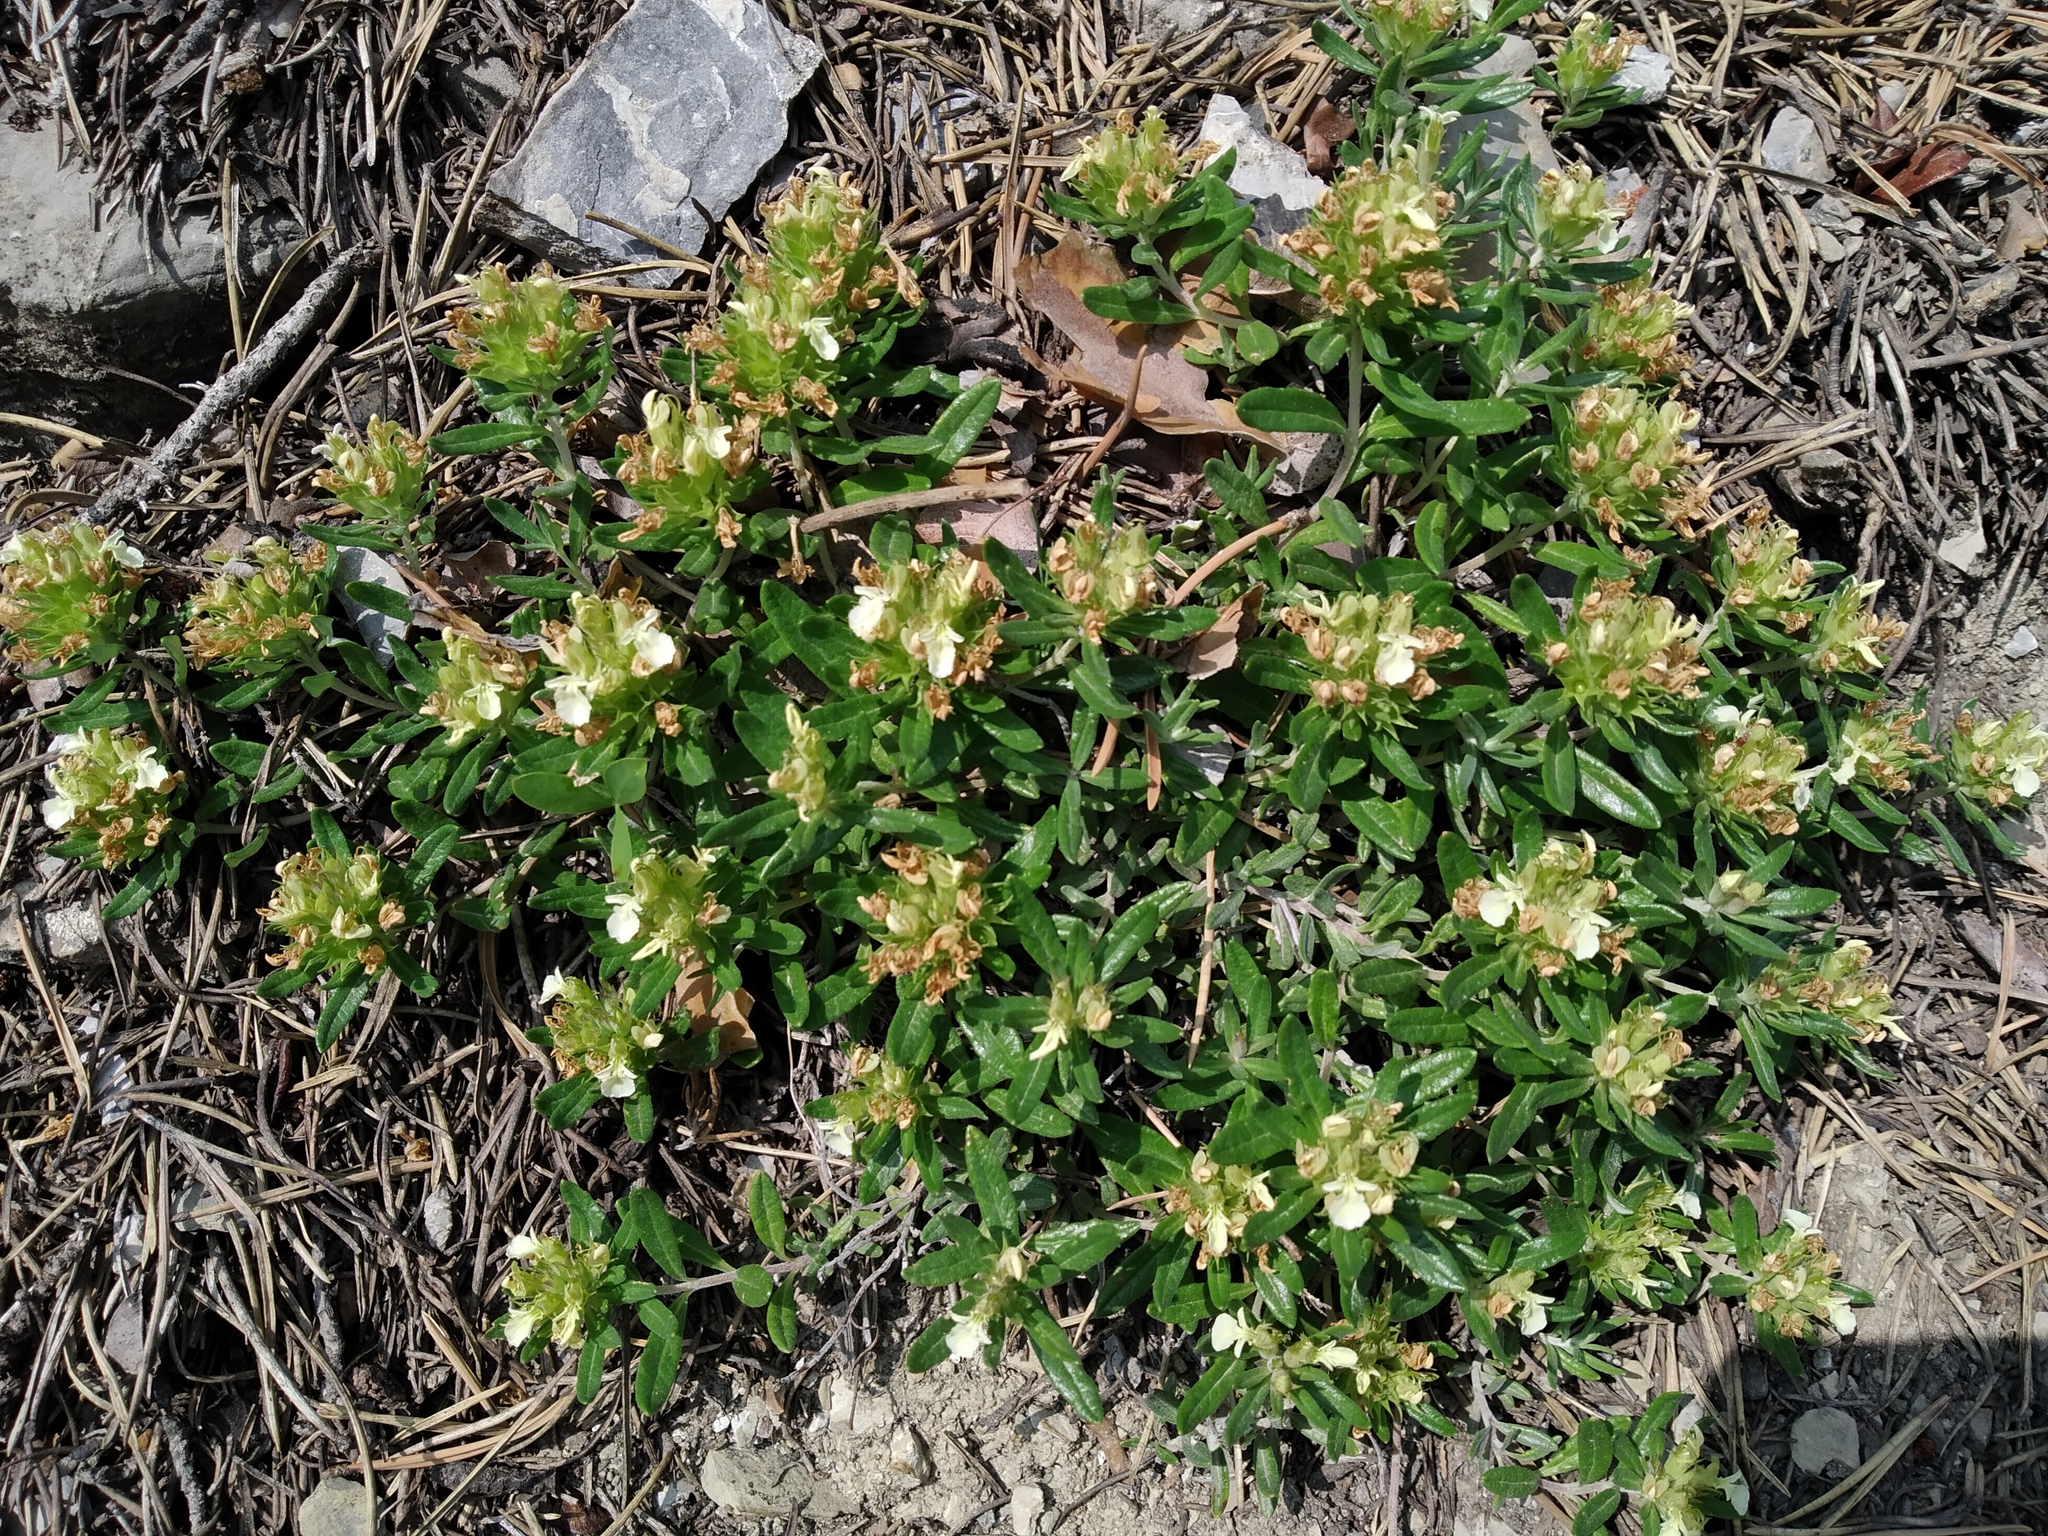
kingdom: Plantae
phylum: Tracheophyta
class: Magnoliopsida
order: Lamiales
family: Lamiaceae
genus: Teucrium
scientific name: Teucrium montanum
